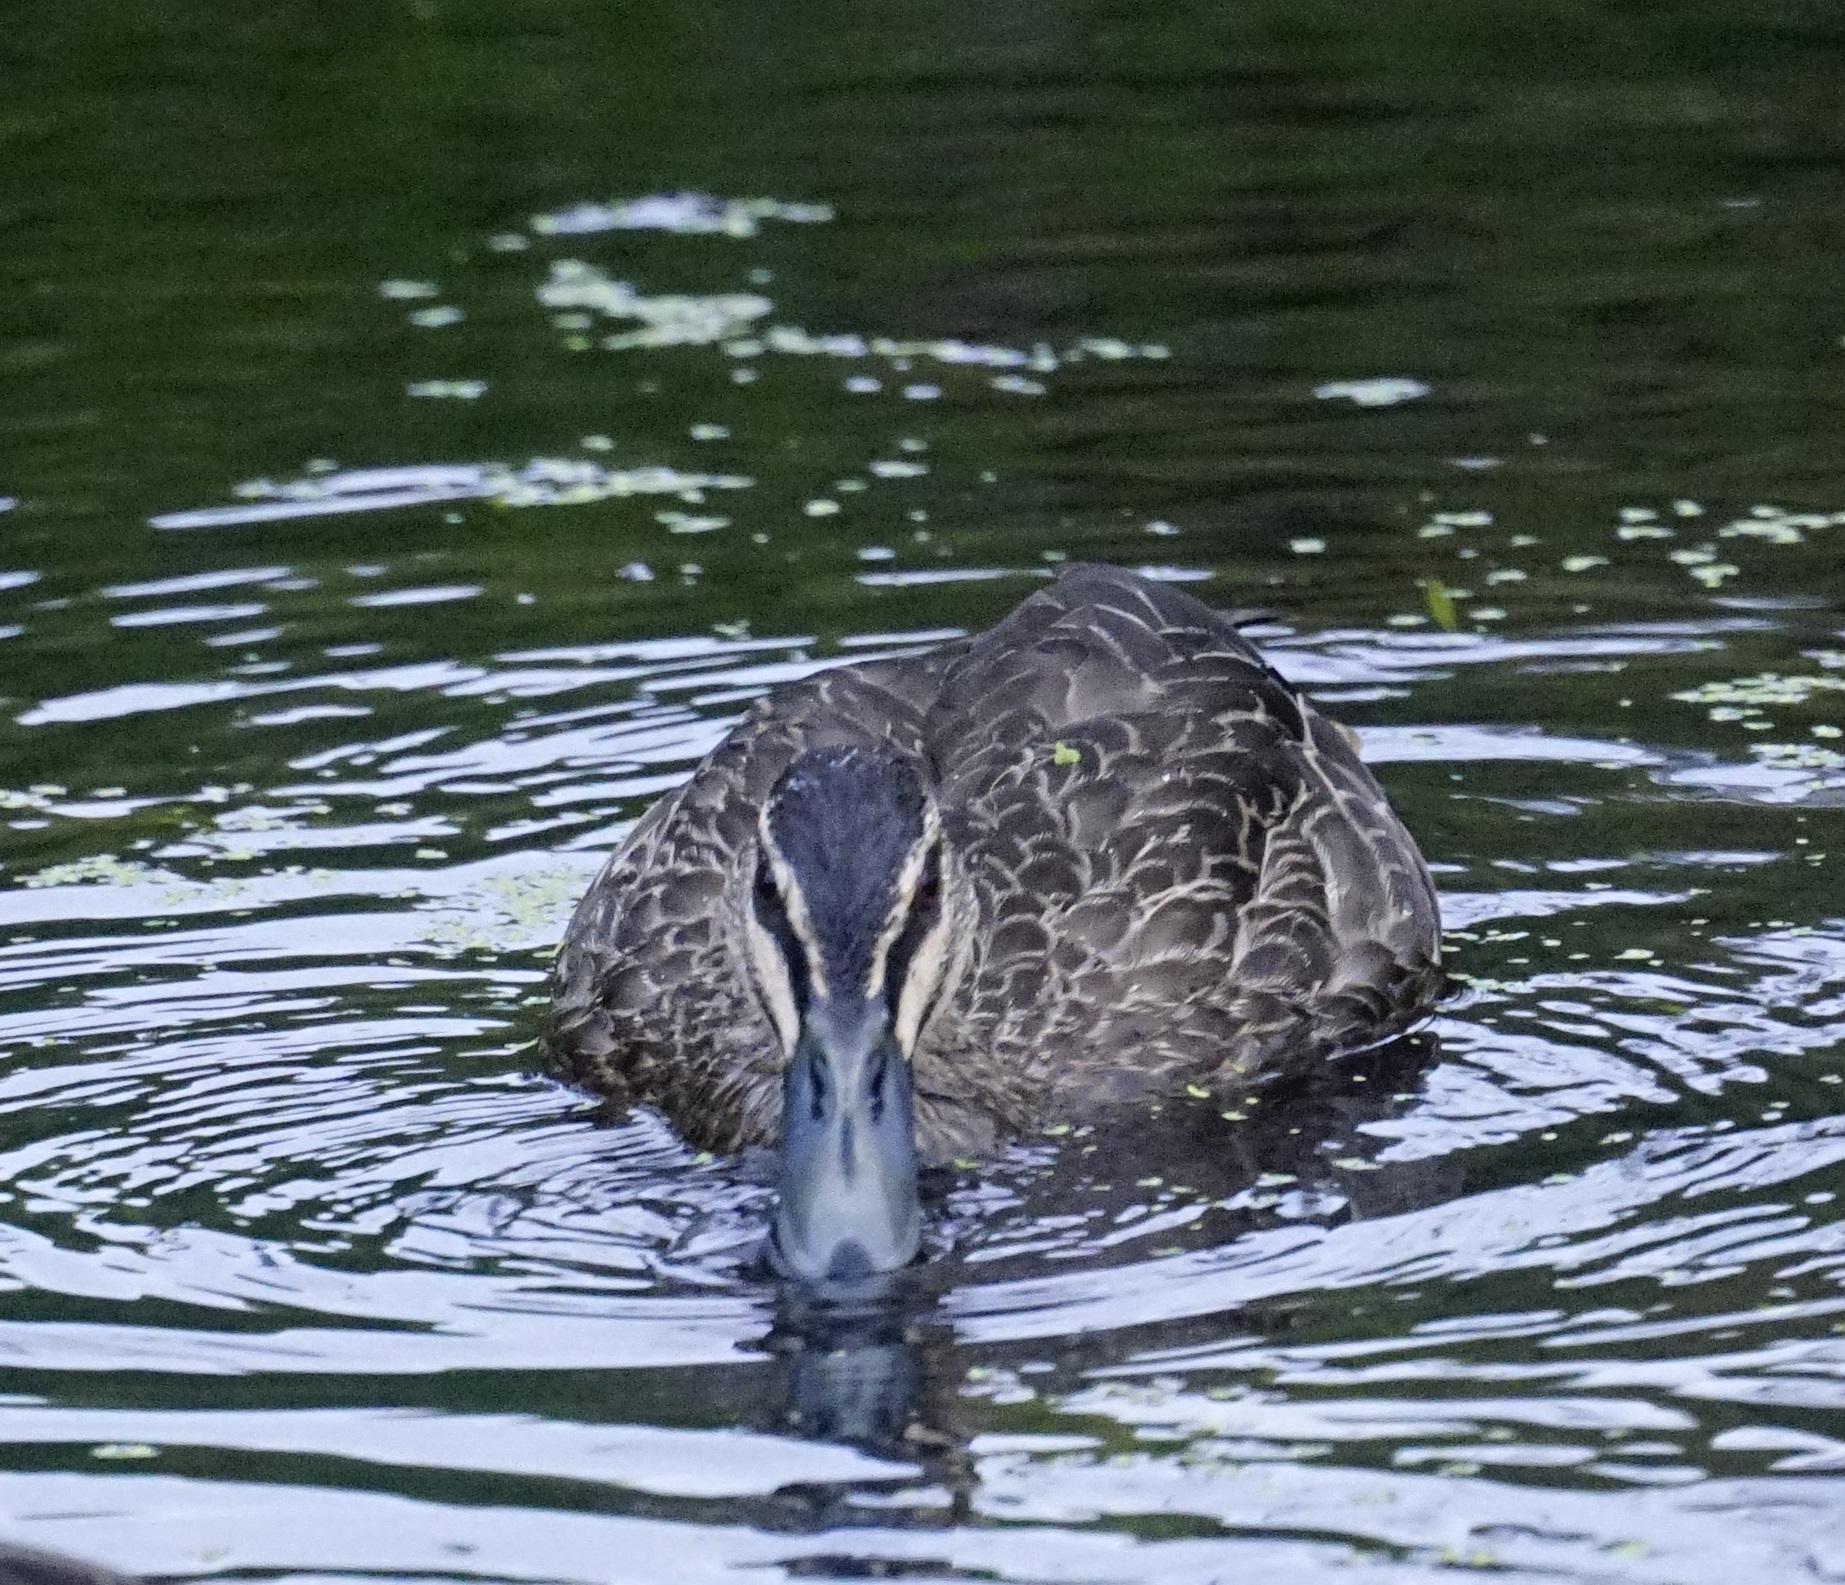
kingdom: Animalia
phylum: Chordata
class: Aves
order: Anseriformes
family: Anatidae
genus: Anas
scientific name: Anas superciliosa
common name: Pacific black duck
